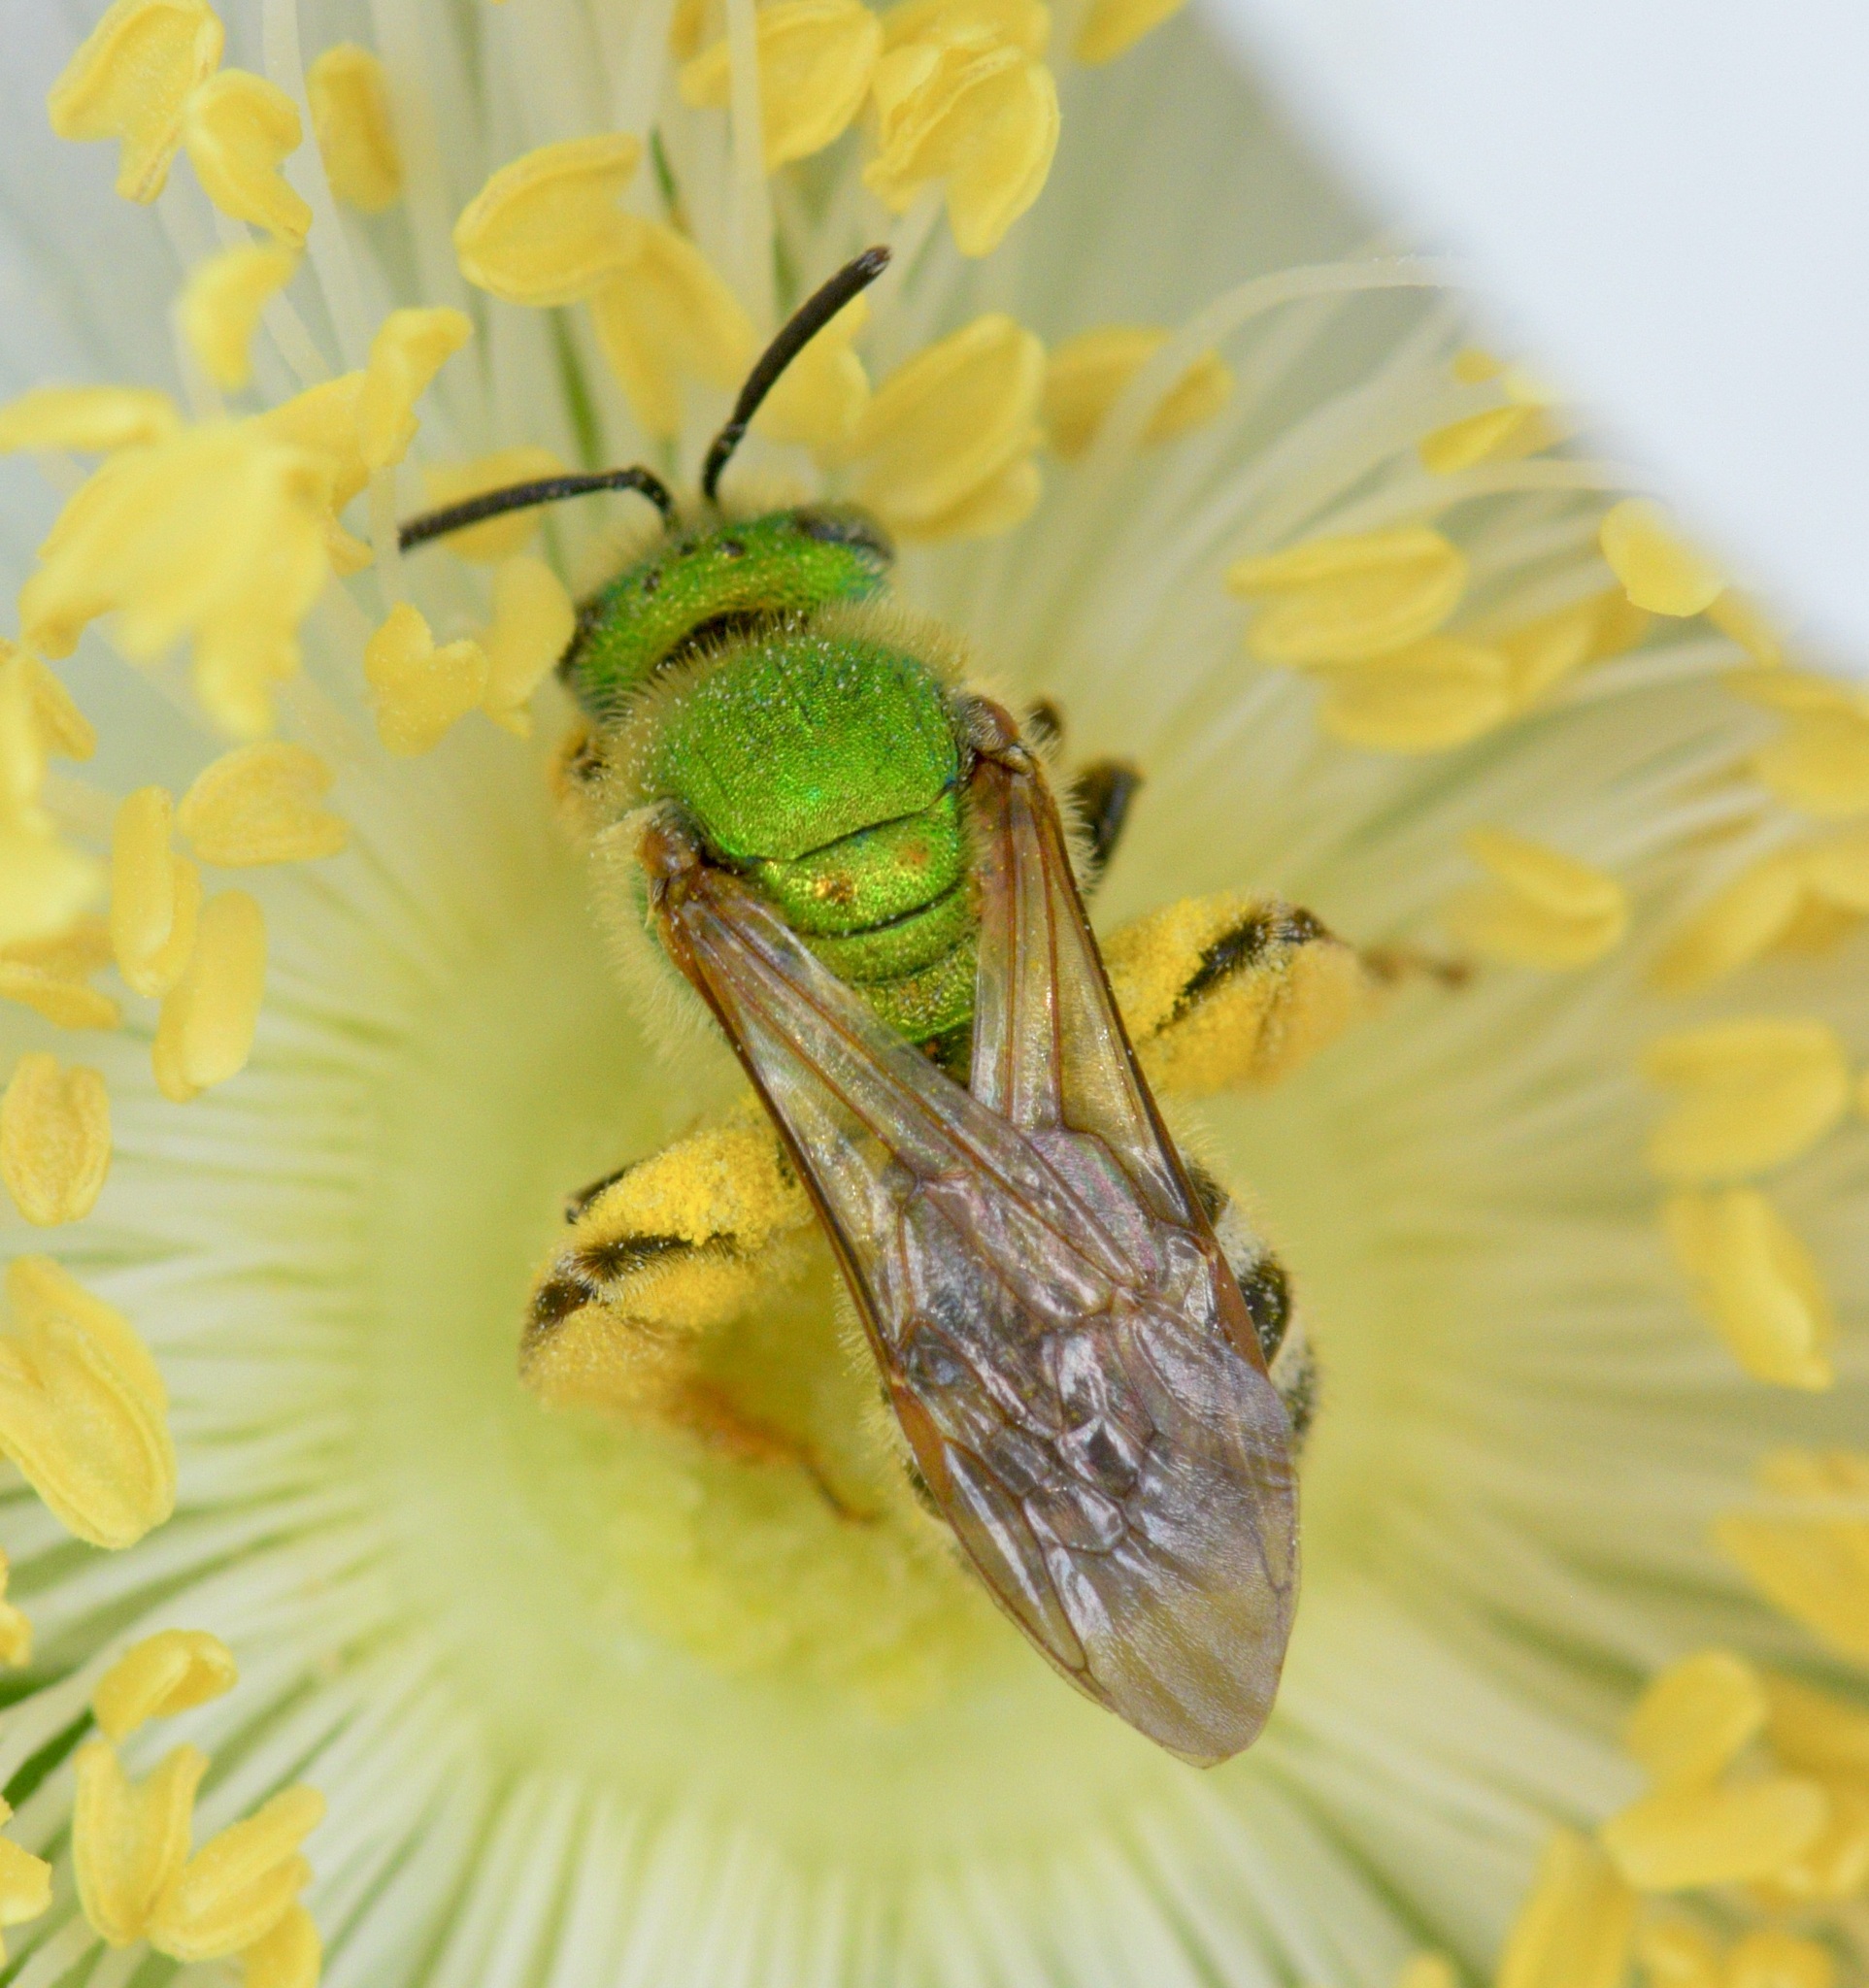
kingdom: Animalia
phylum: Arthropoda
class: Insecta
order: Hymenoptera
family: Halictidae
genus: Agapostemon
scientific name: Agapostemon virescens
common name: Bicolored striped sweat bee
